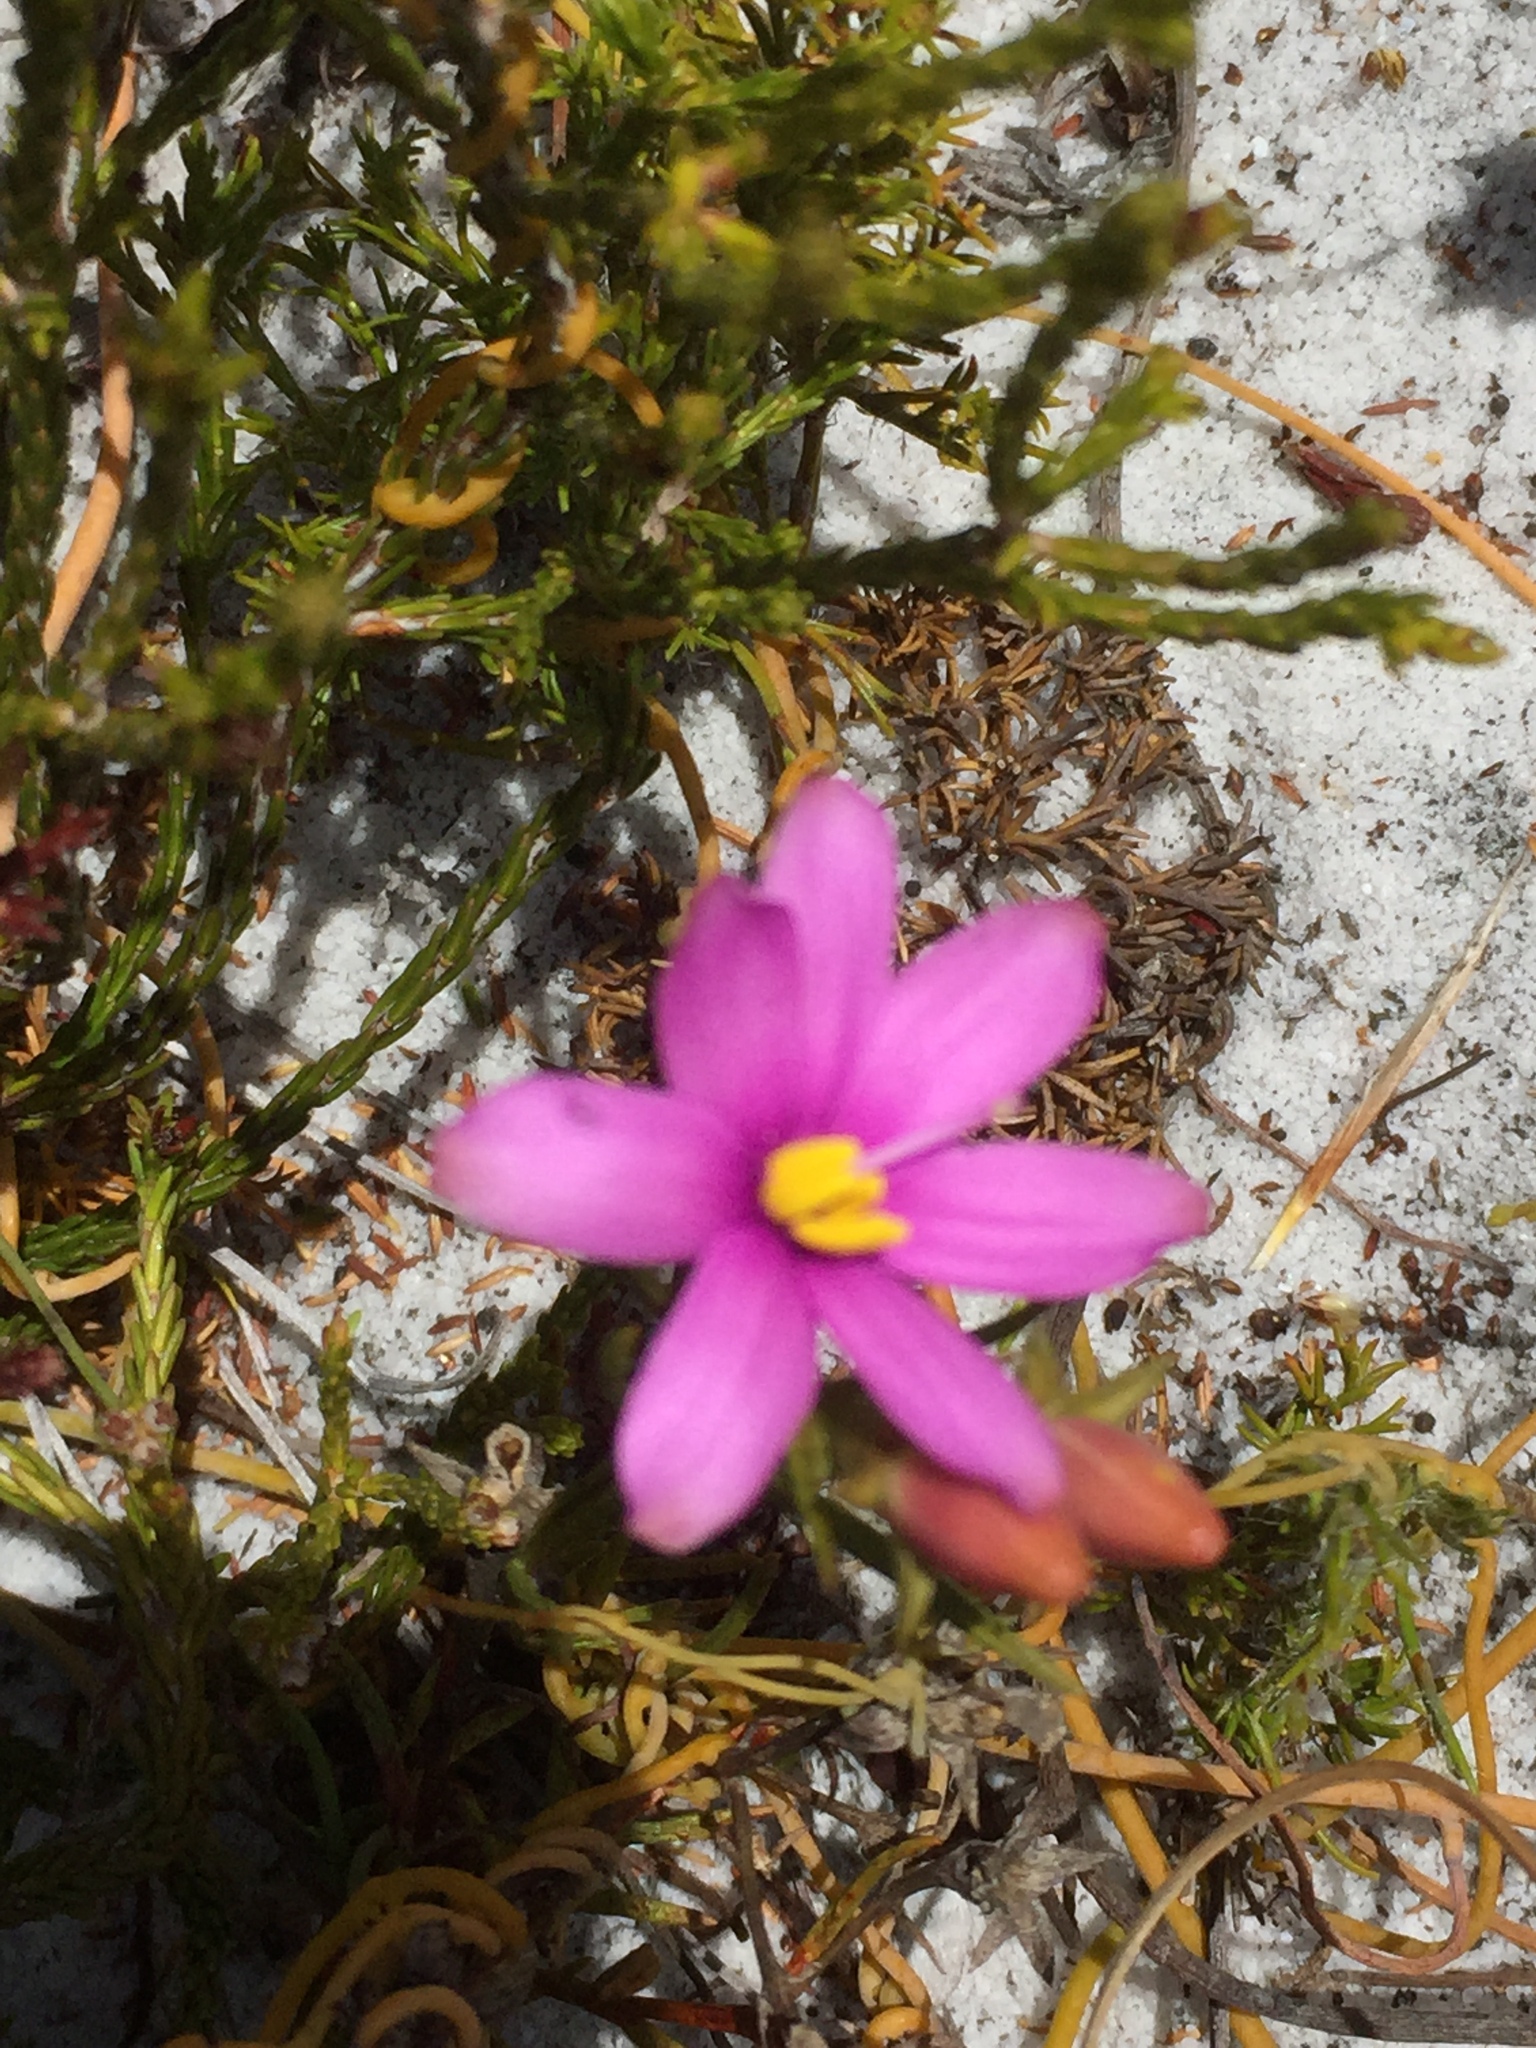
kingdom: Plantae
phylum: Tracheophyta
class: Magnoliopsida
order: Gentianales
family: Gentianaceae
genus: Chironia
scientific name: Chironia linoides
